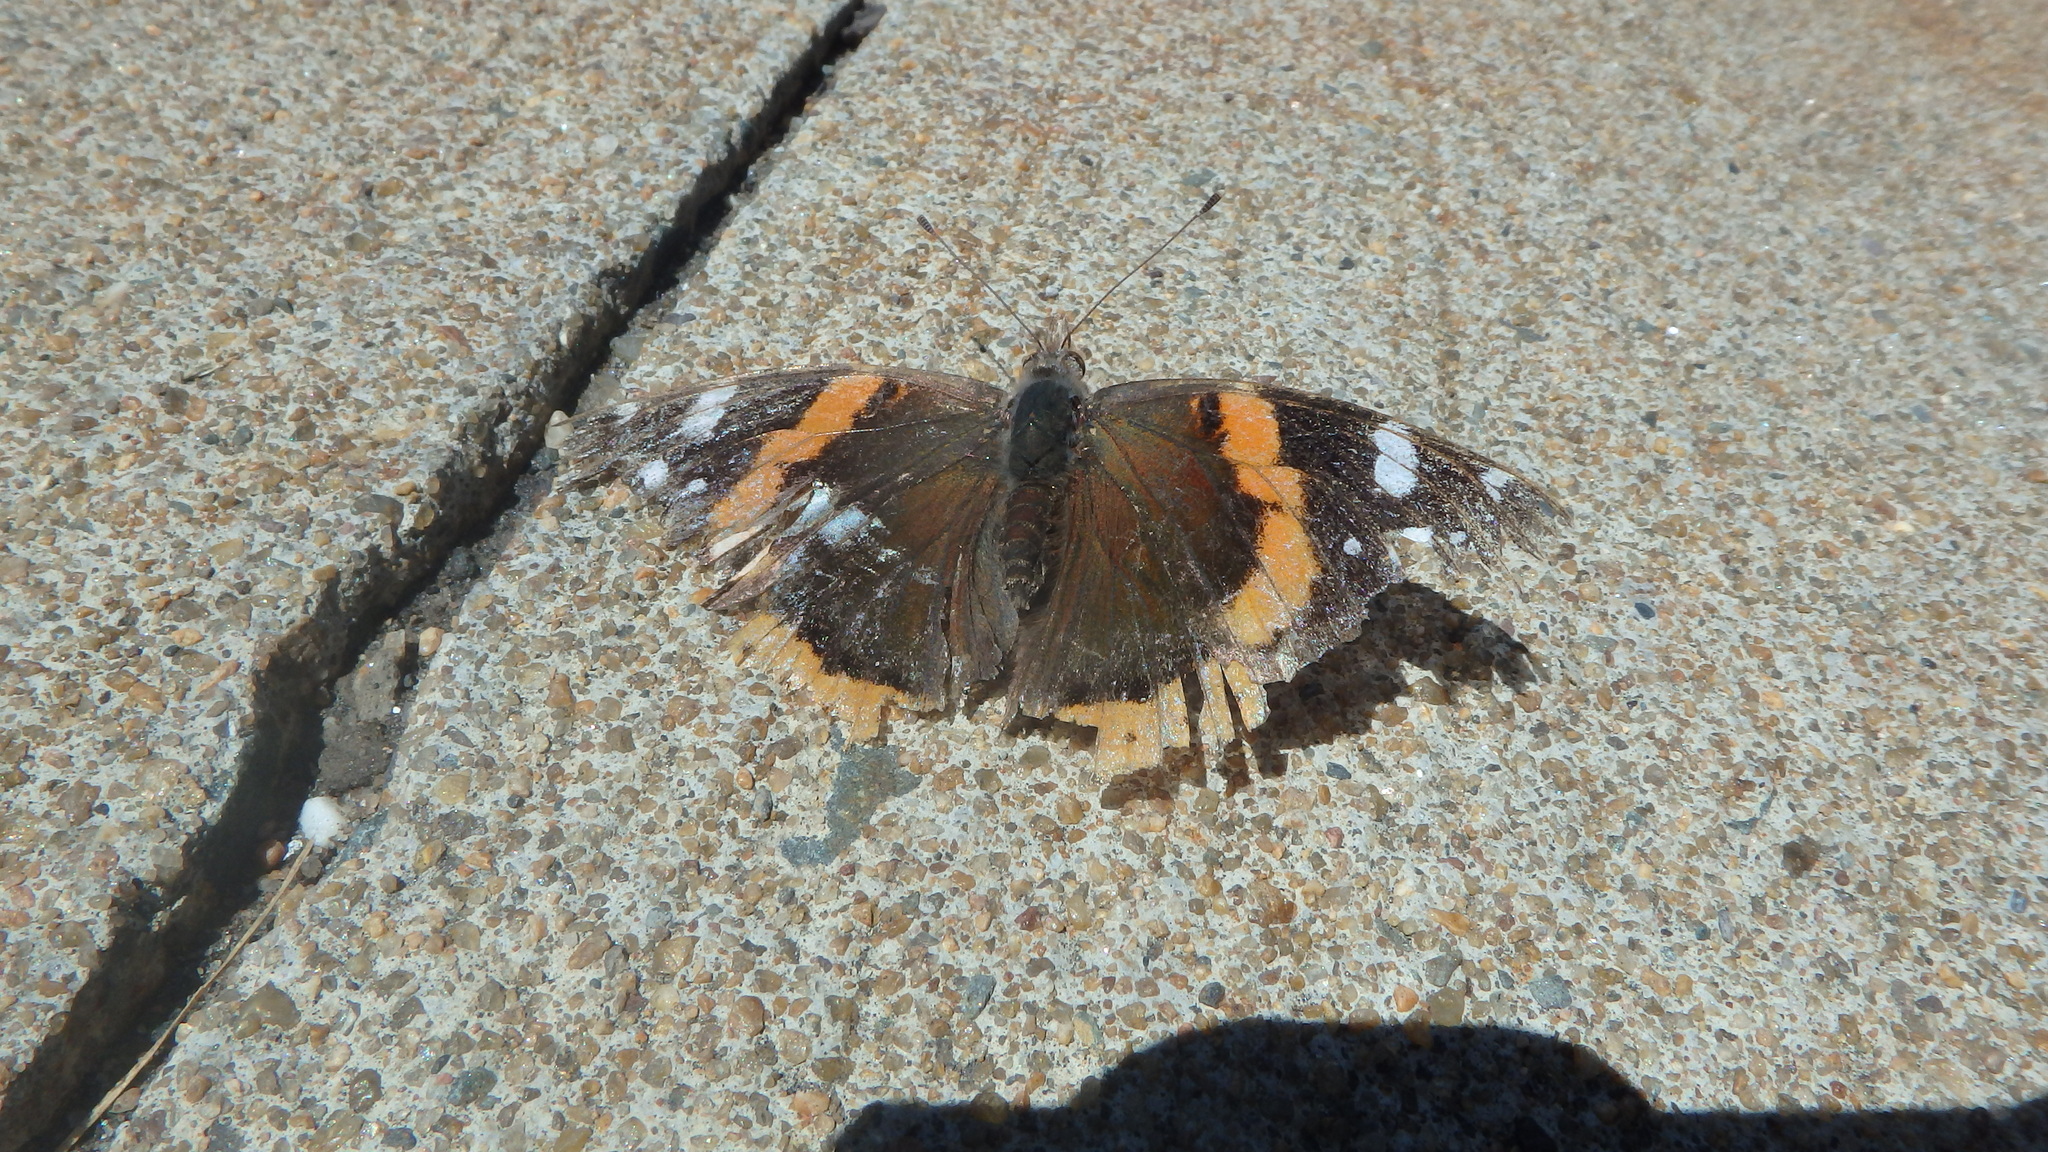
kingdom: Animalia
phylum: Arthropoda
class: Insecta
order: Lepidoptera
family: Nymphalidae
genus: Vanessa
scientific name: Vanessa atalanta
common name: Red admiral
